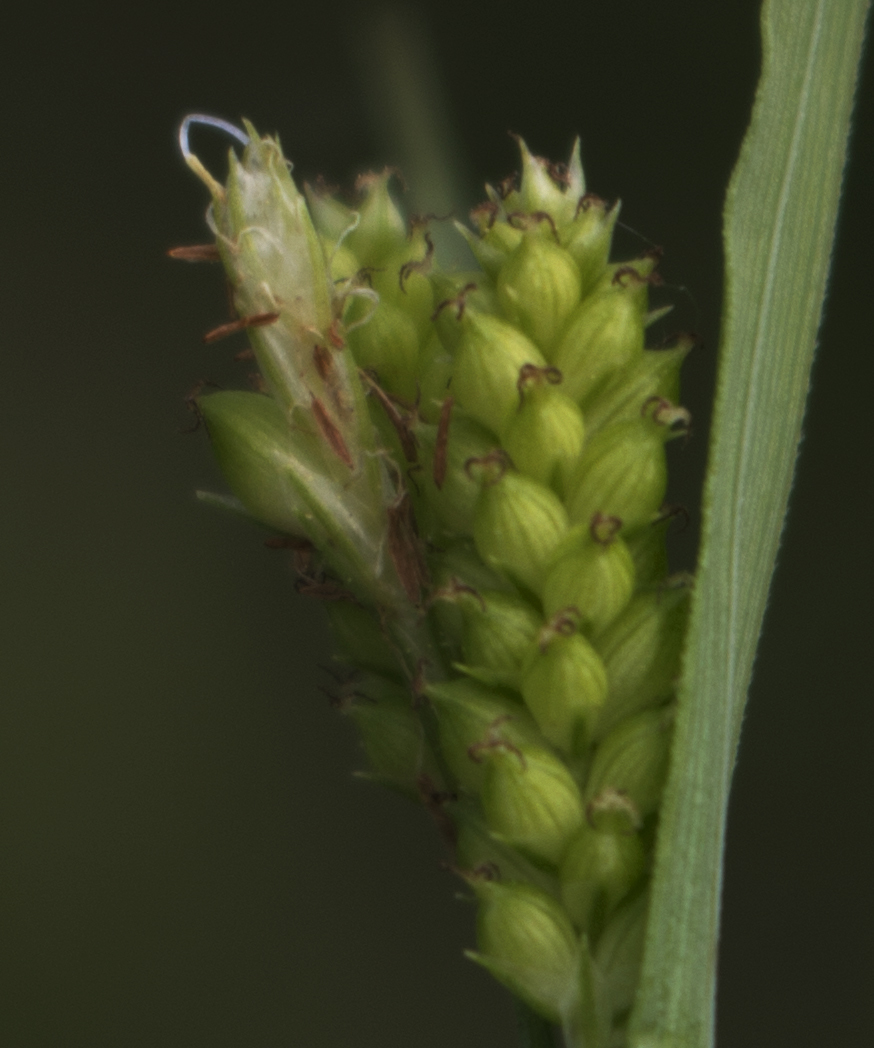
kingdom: Plantae
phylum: Tracheophyta
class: Liliopsida
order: Poales
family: Cyperaceae
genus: Carex
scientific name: Carex granularis
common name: Granular sedge
